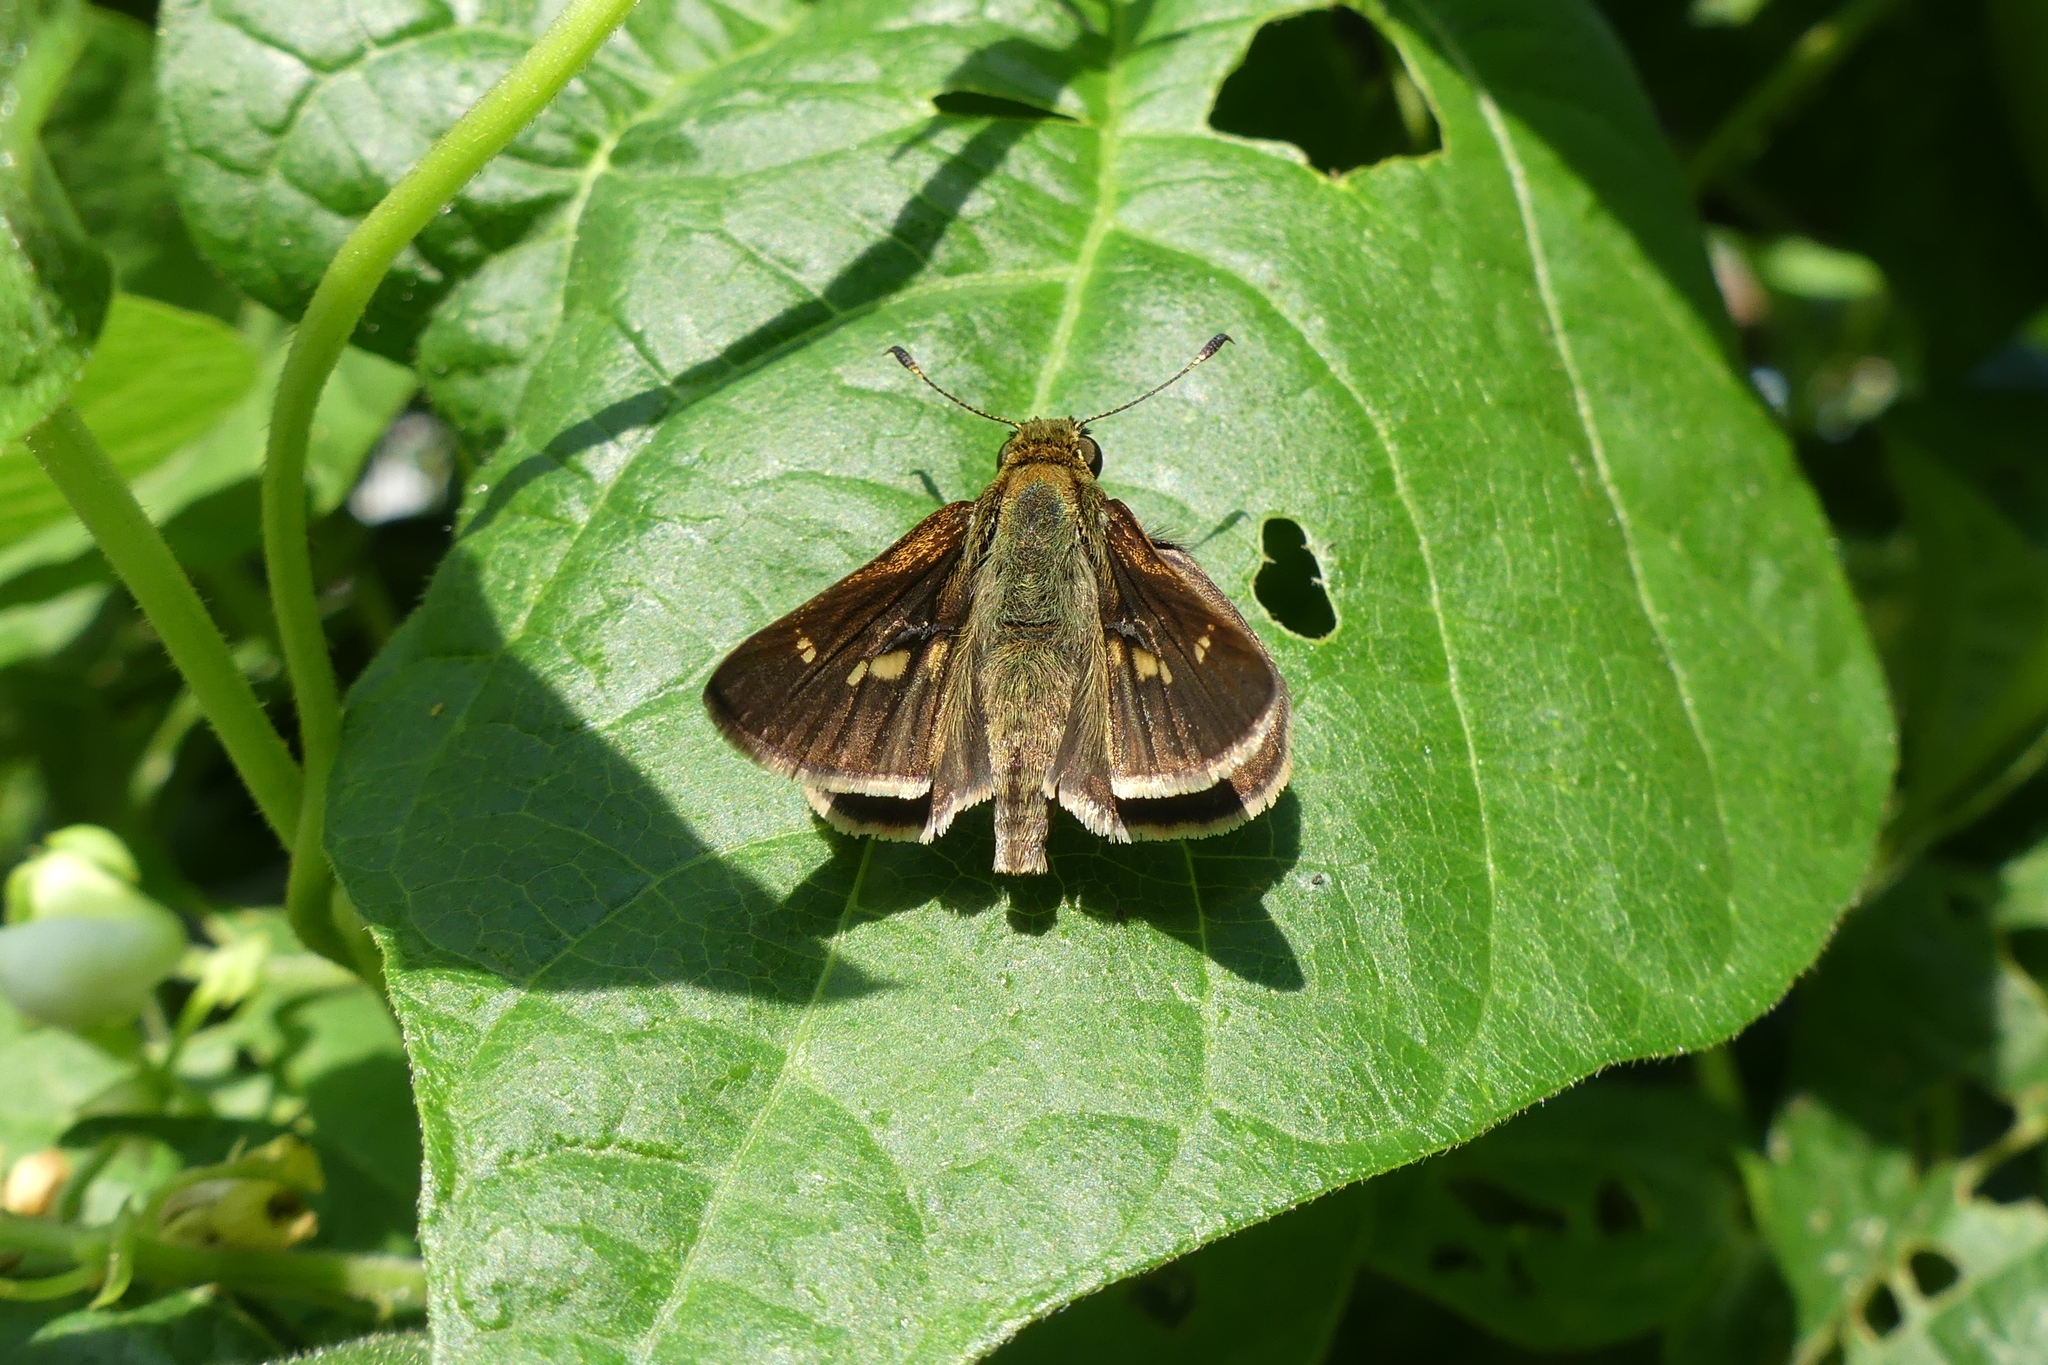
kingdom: Animalia
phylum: Arthropoda
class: Insecta
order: Lepidoptera
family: Hesperiidae
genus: Vernia
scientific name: Vernia verna
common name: Little glassywing
